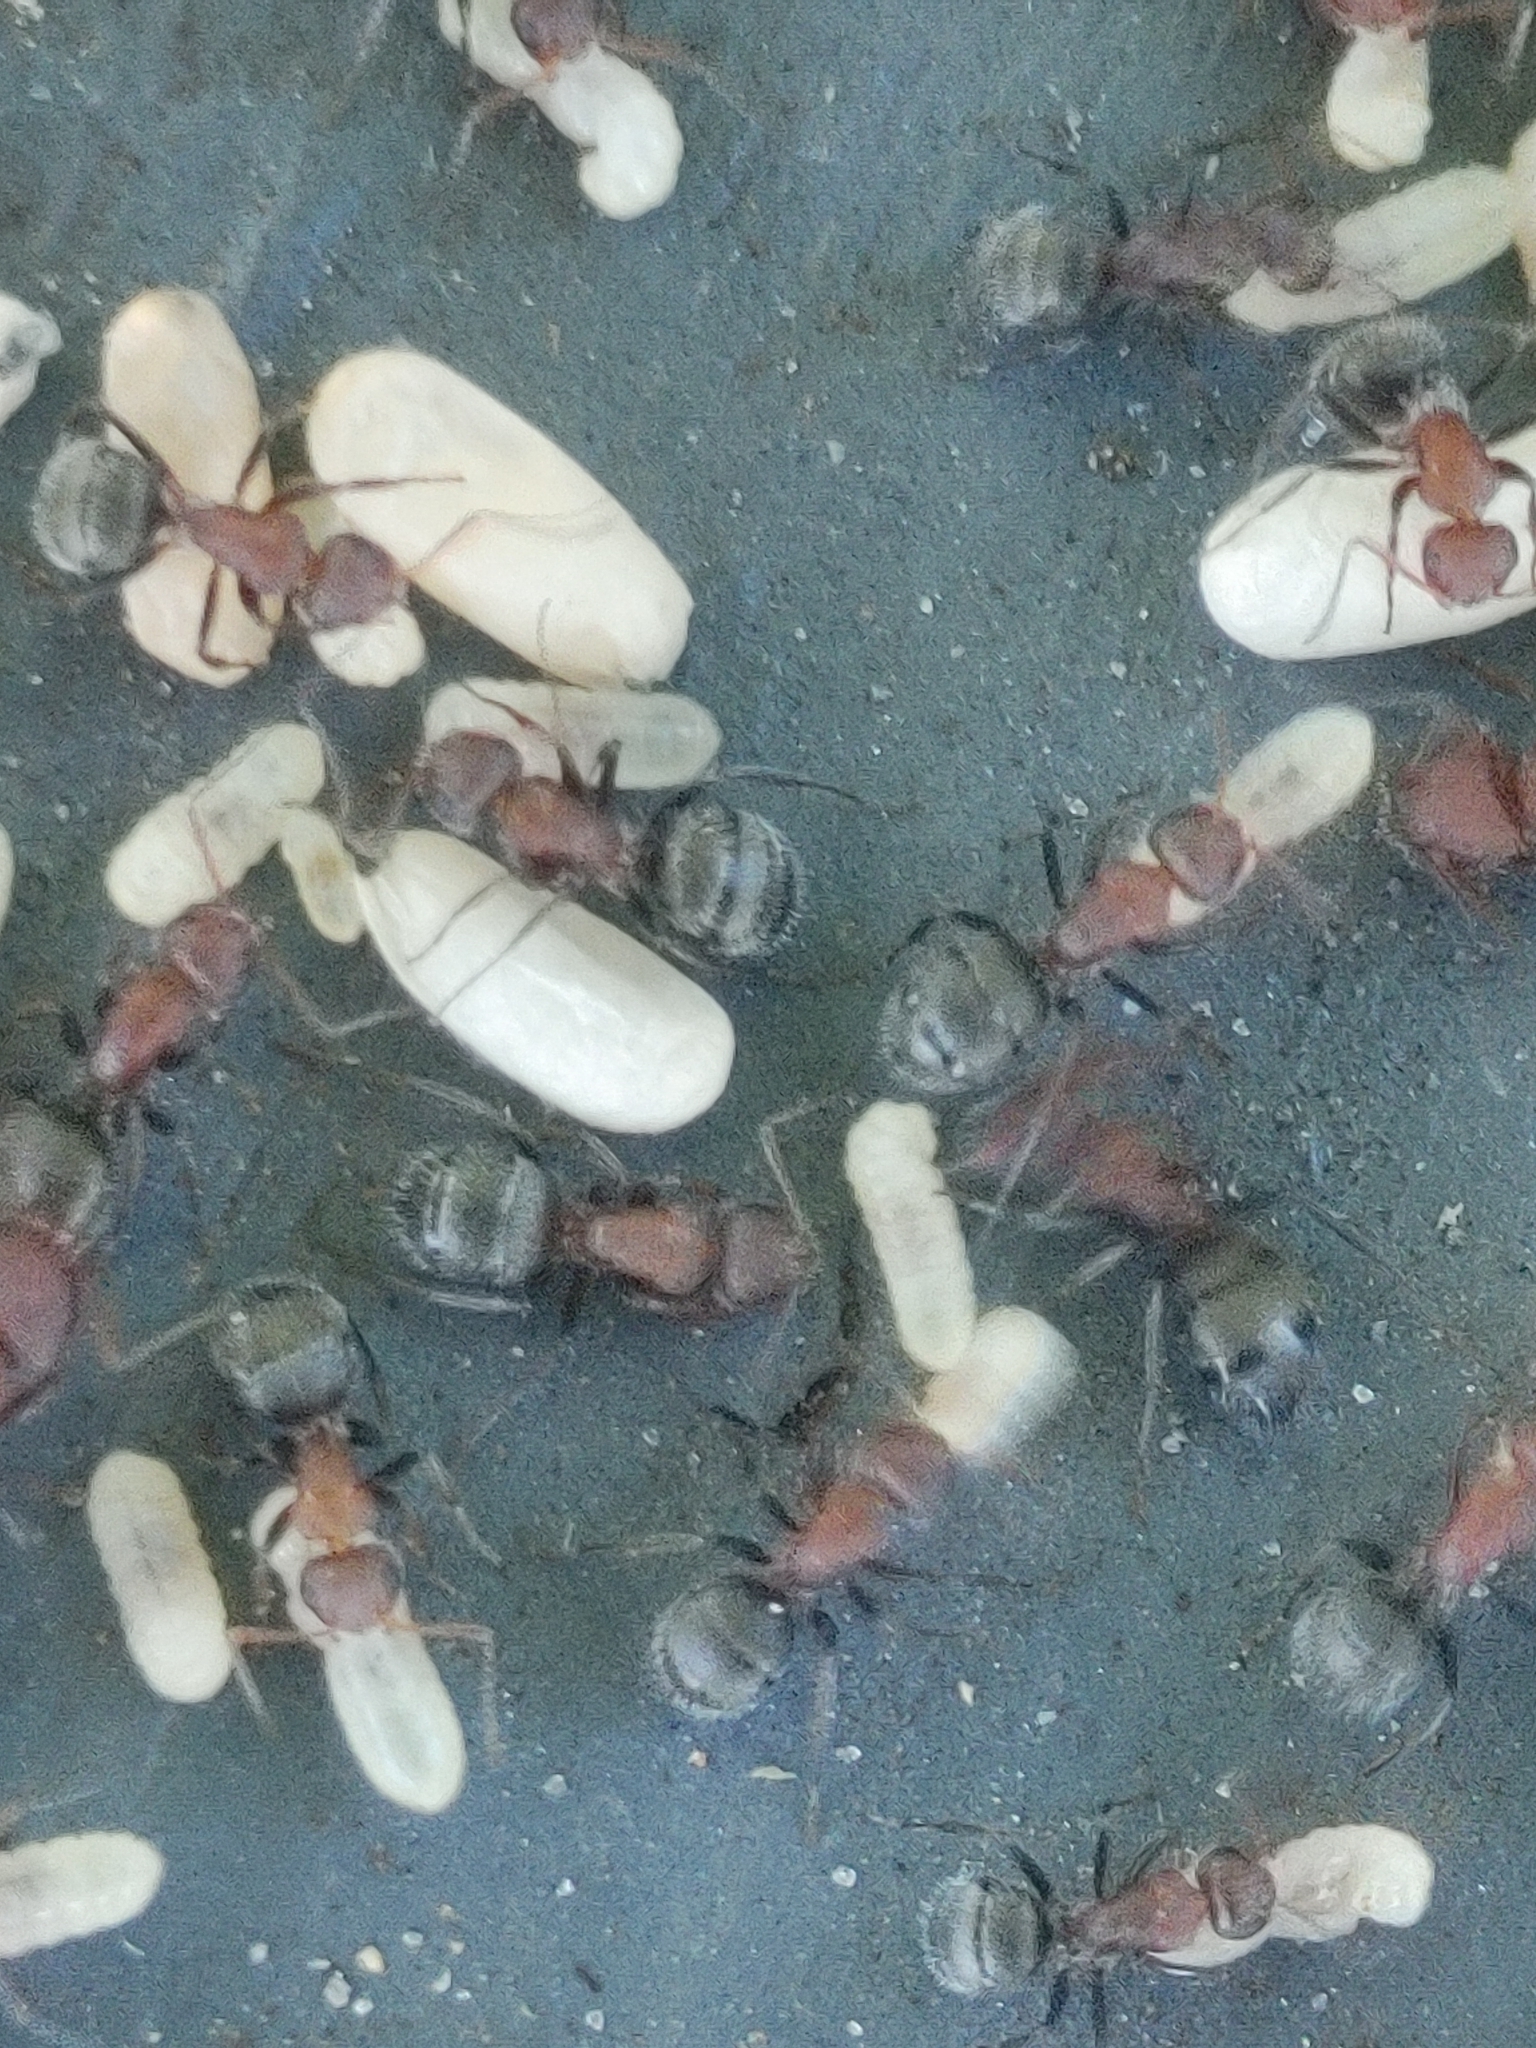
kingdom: Animalia
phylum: Arthropoda
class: Insecta
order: Hymenoptera
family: Formicidae
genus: Camponotus
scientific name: Camponotus planatus
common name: Compact carpenter ant
